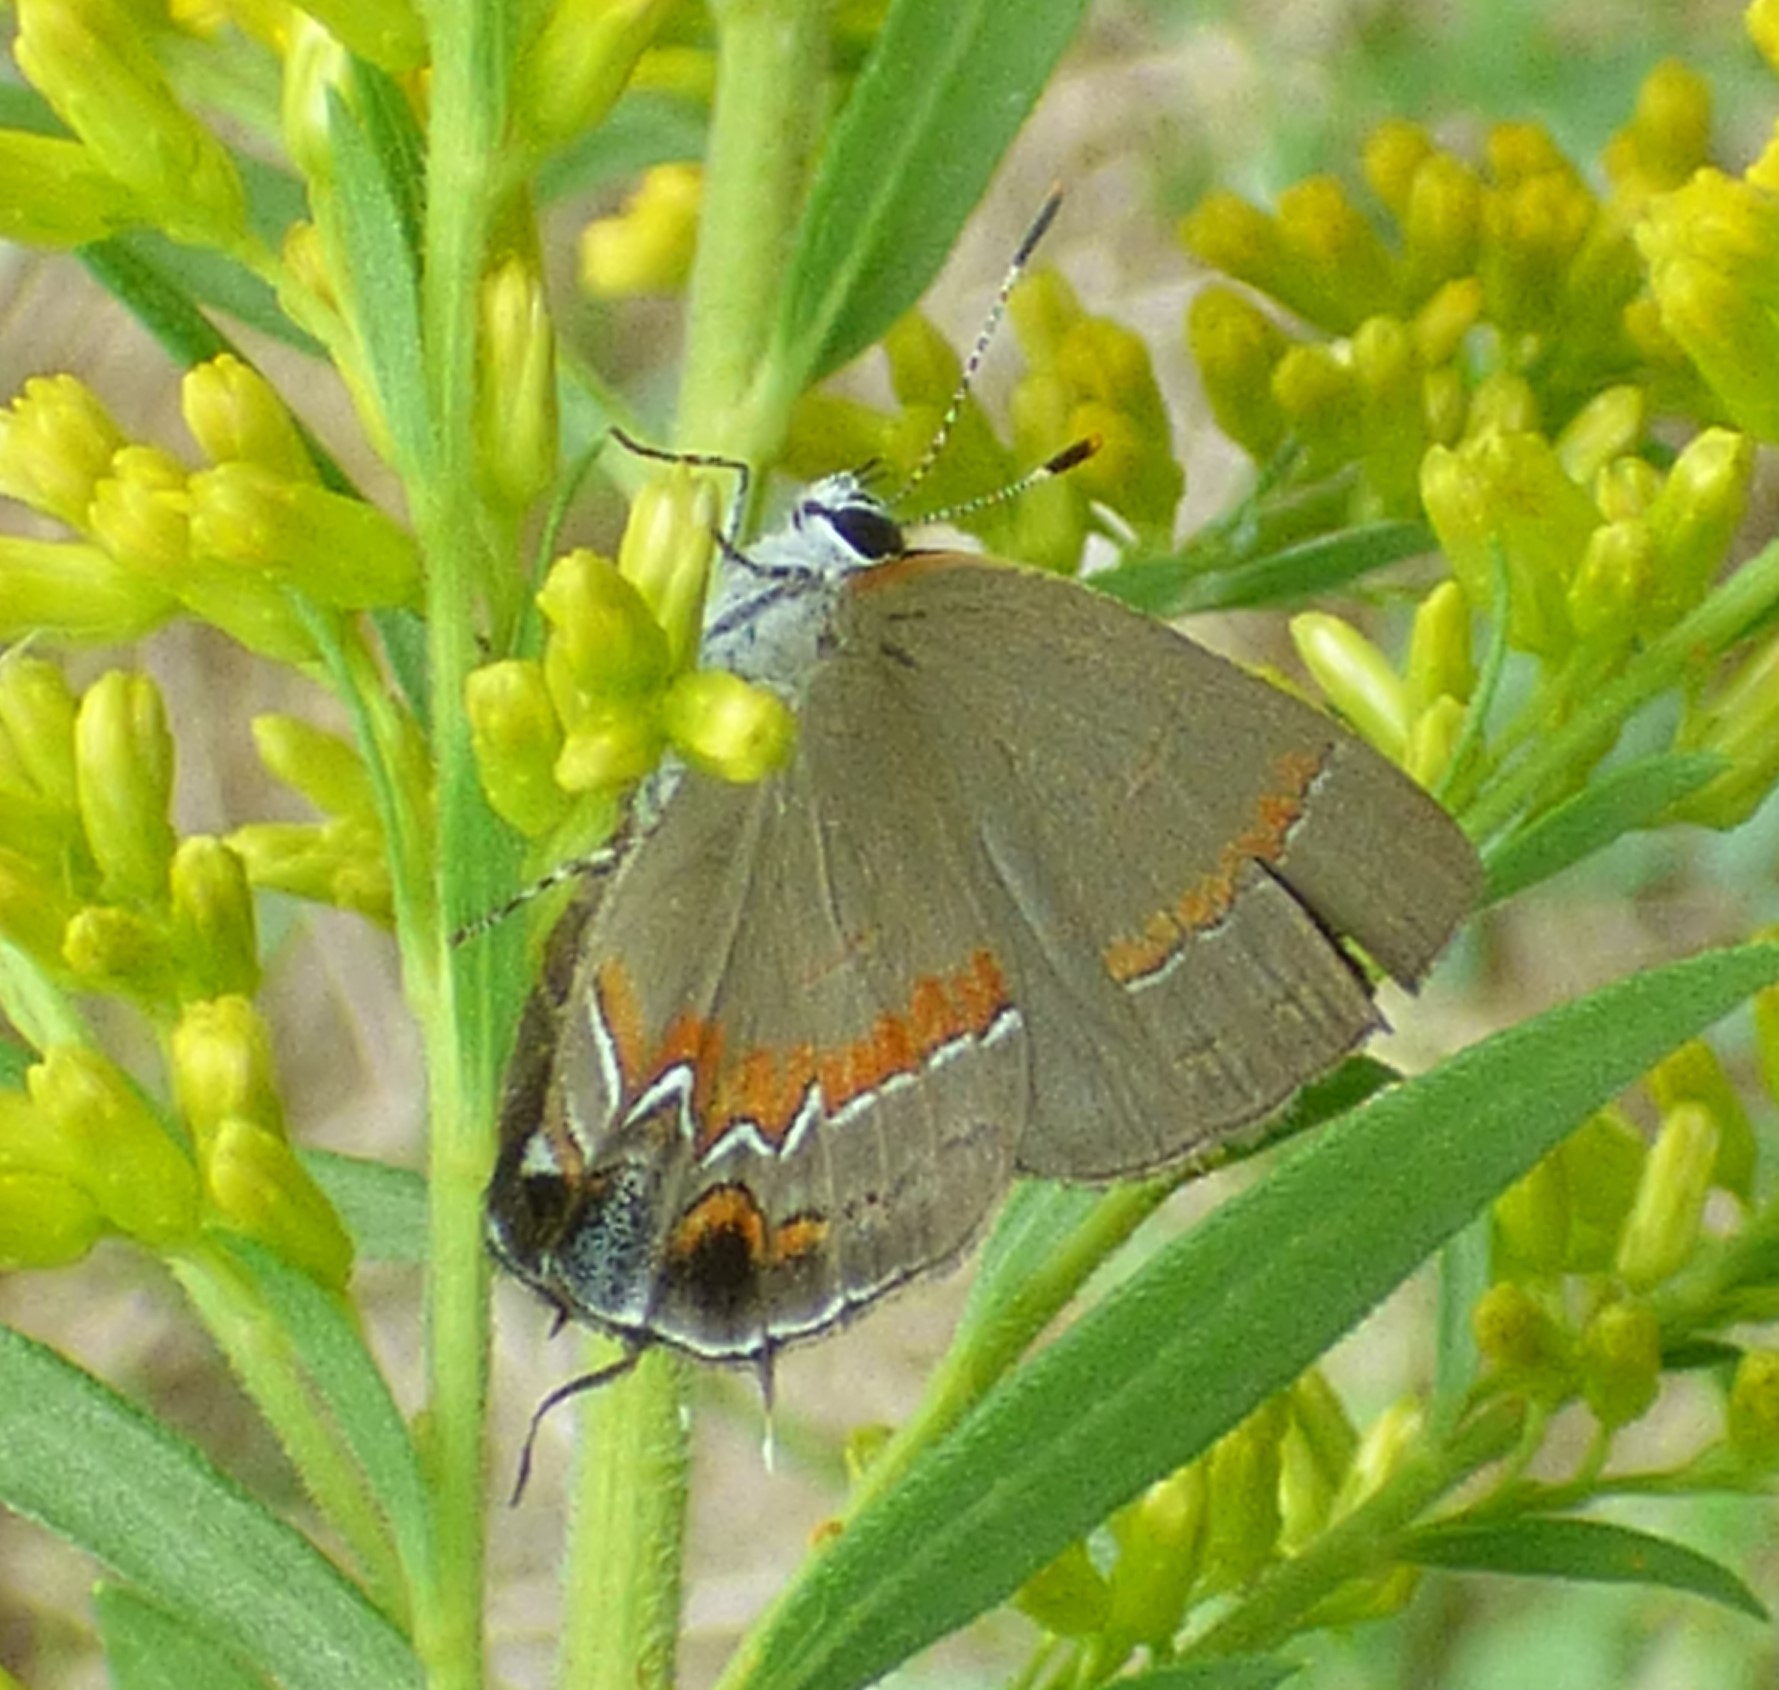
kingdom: Animalia
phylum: Arthropoda
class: Insecta
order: Lepidoptera
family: Lycaenidae
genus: Calycopis
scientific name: Calycopis cecrops
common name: Red-banded hairstreak
